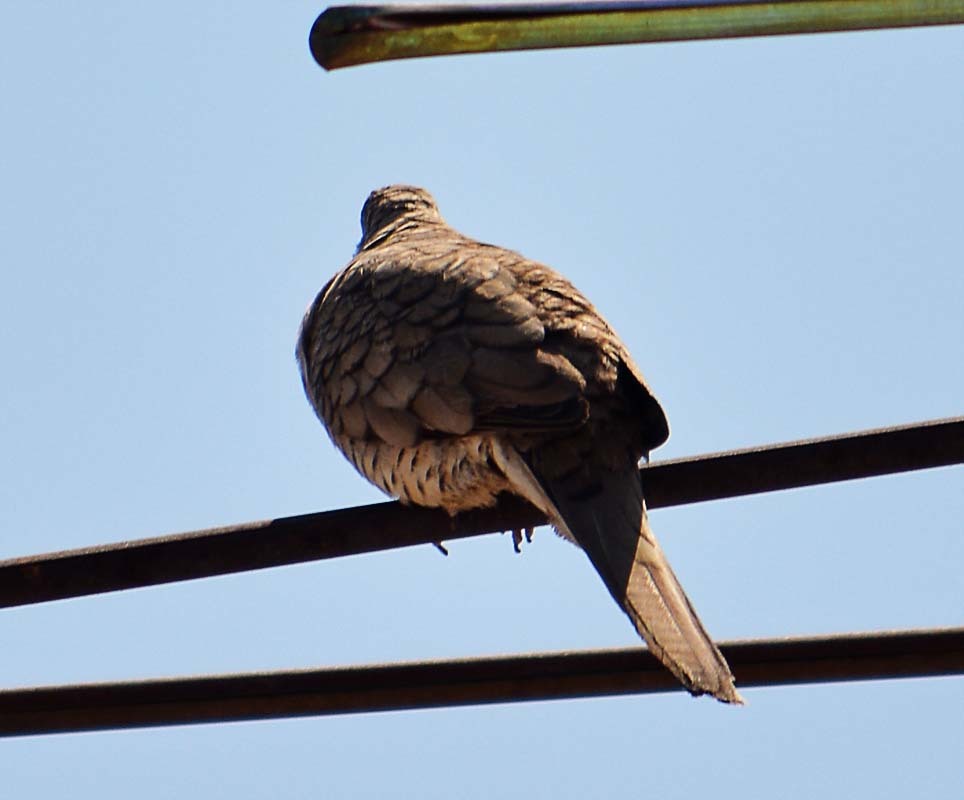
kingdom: Animalia
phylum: Chordata
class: Aves
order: Columbiformes
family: Columbidae
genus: Columbina
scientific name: Columbina inca
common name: Inca dove
